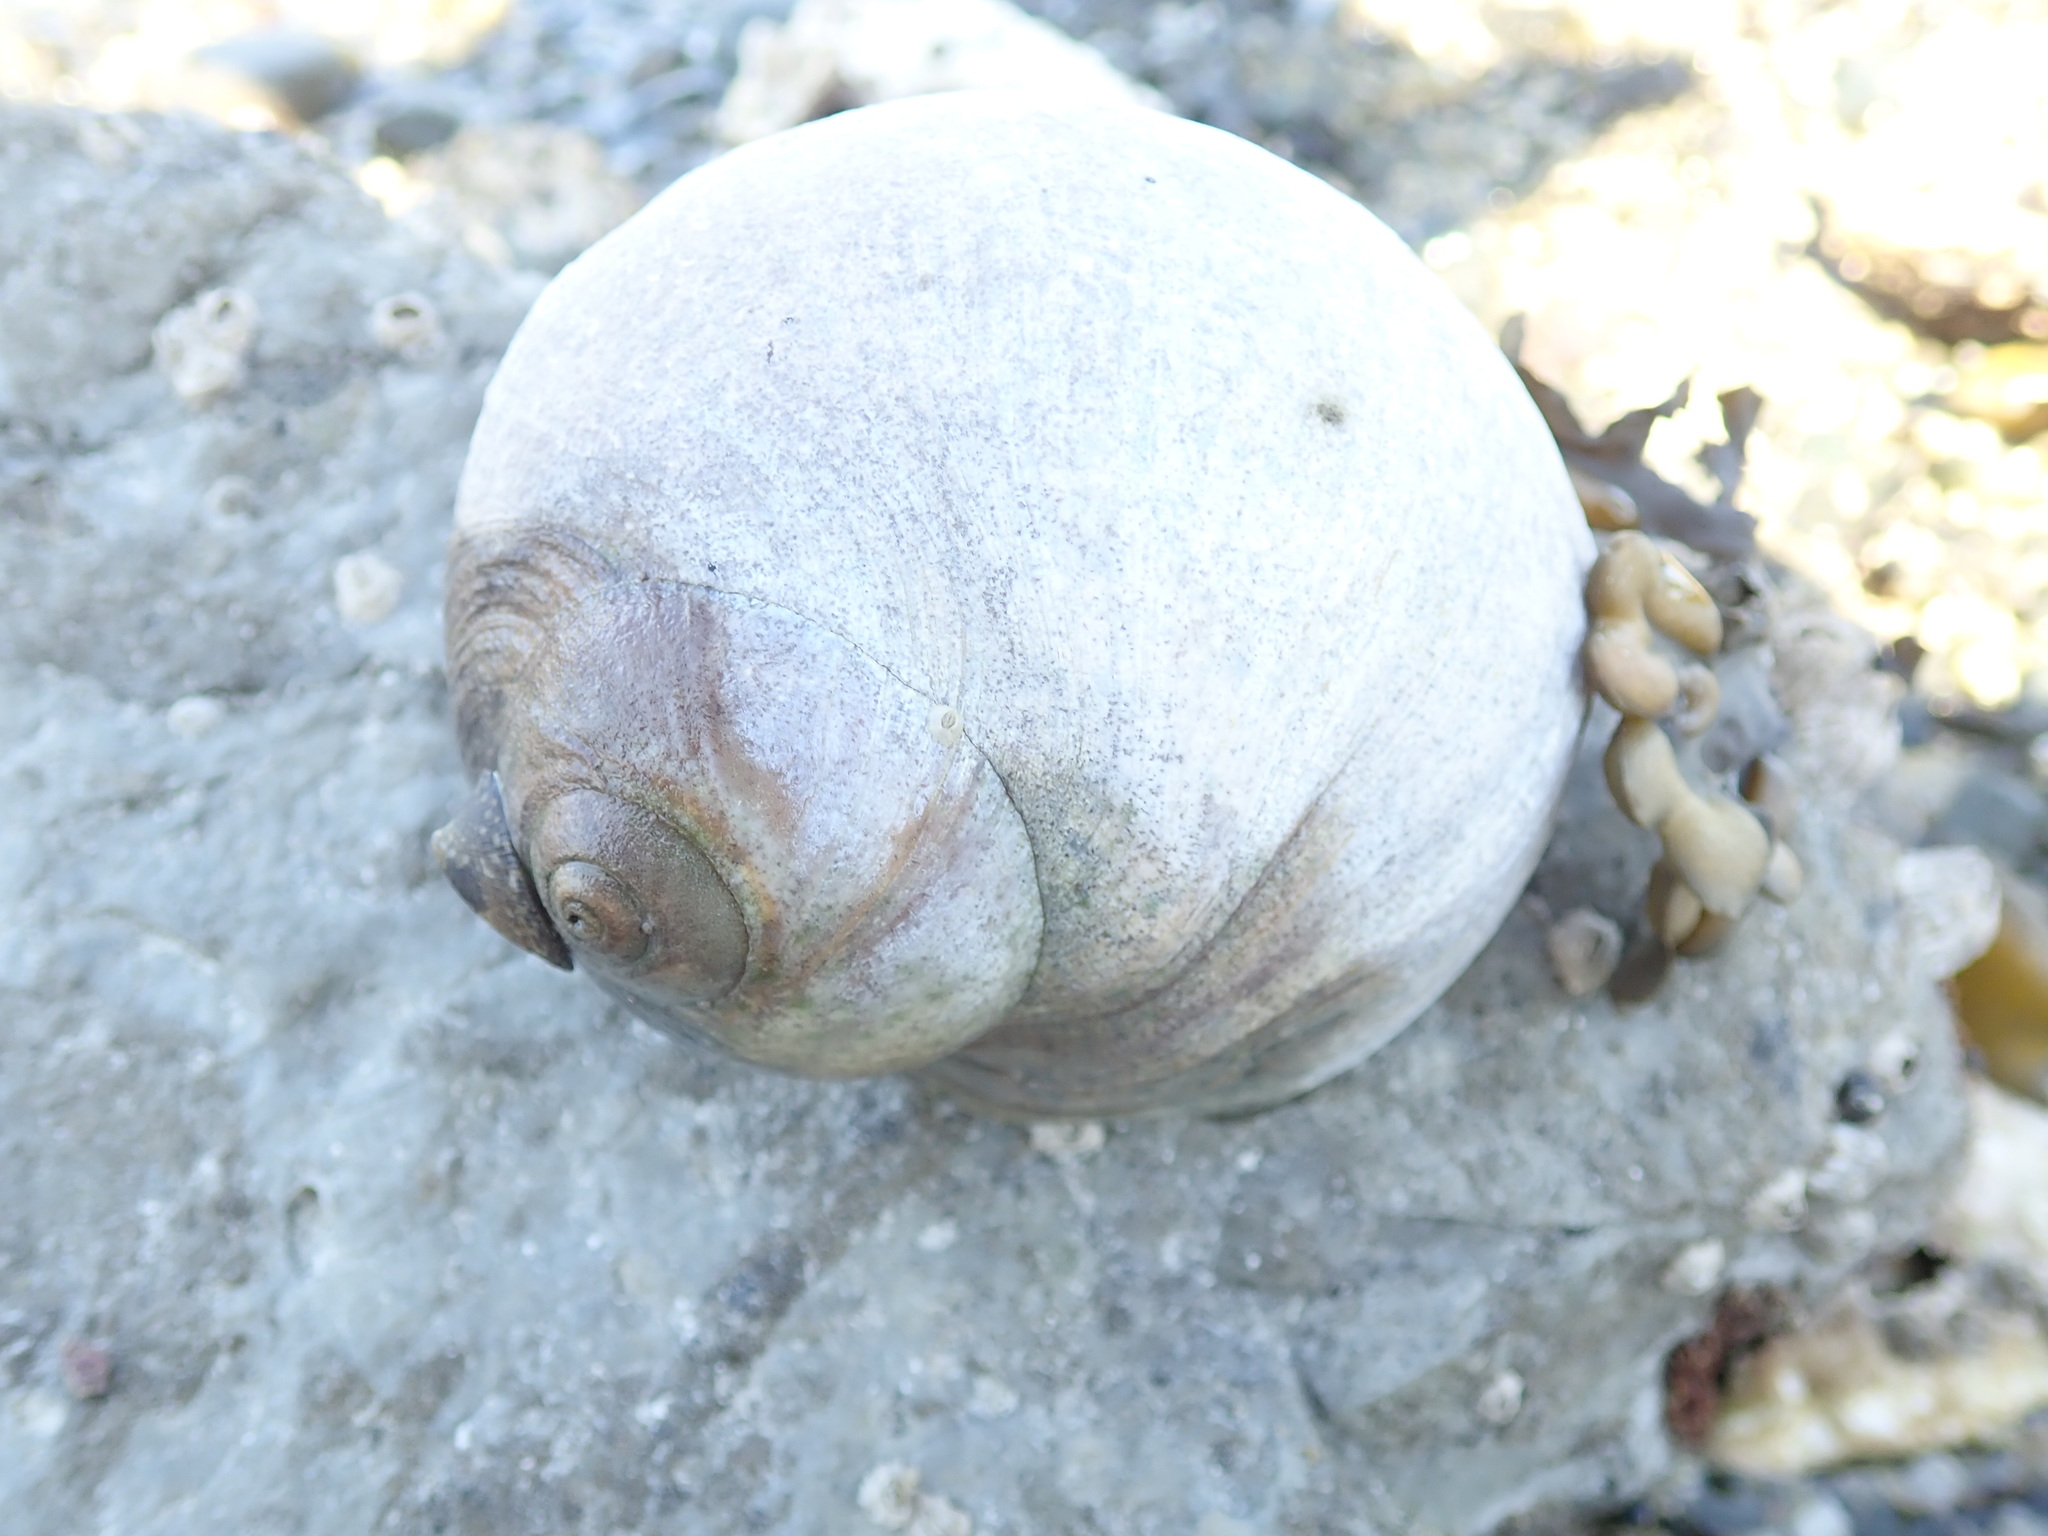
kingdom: Animalia
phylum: Mollusca
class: Gastropoda
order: Littorinimorpha
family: Naticidae
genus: Neverita
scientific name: Neverita lewisii
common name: Lewis' moonsnail
